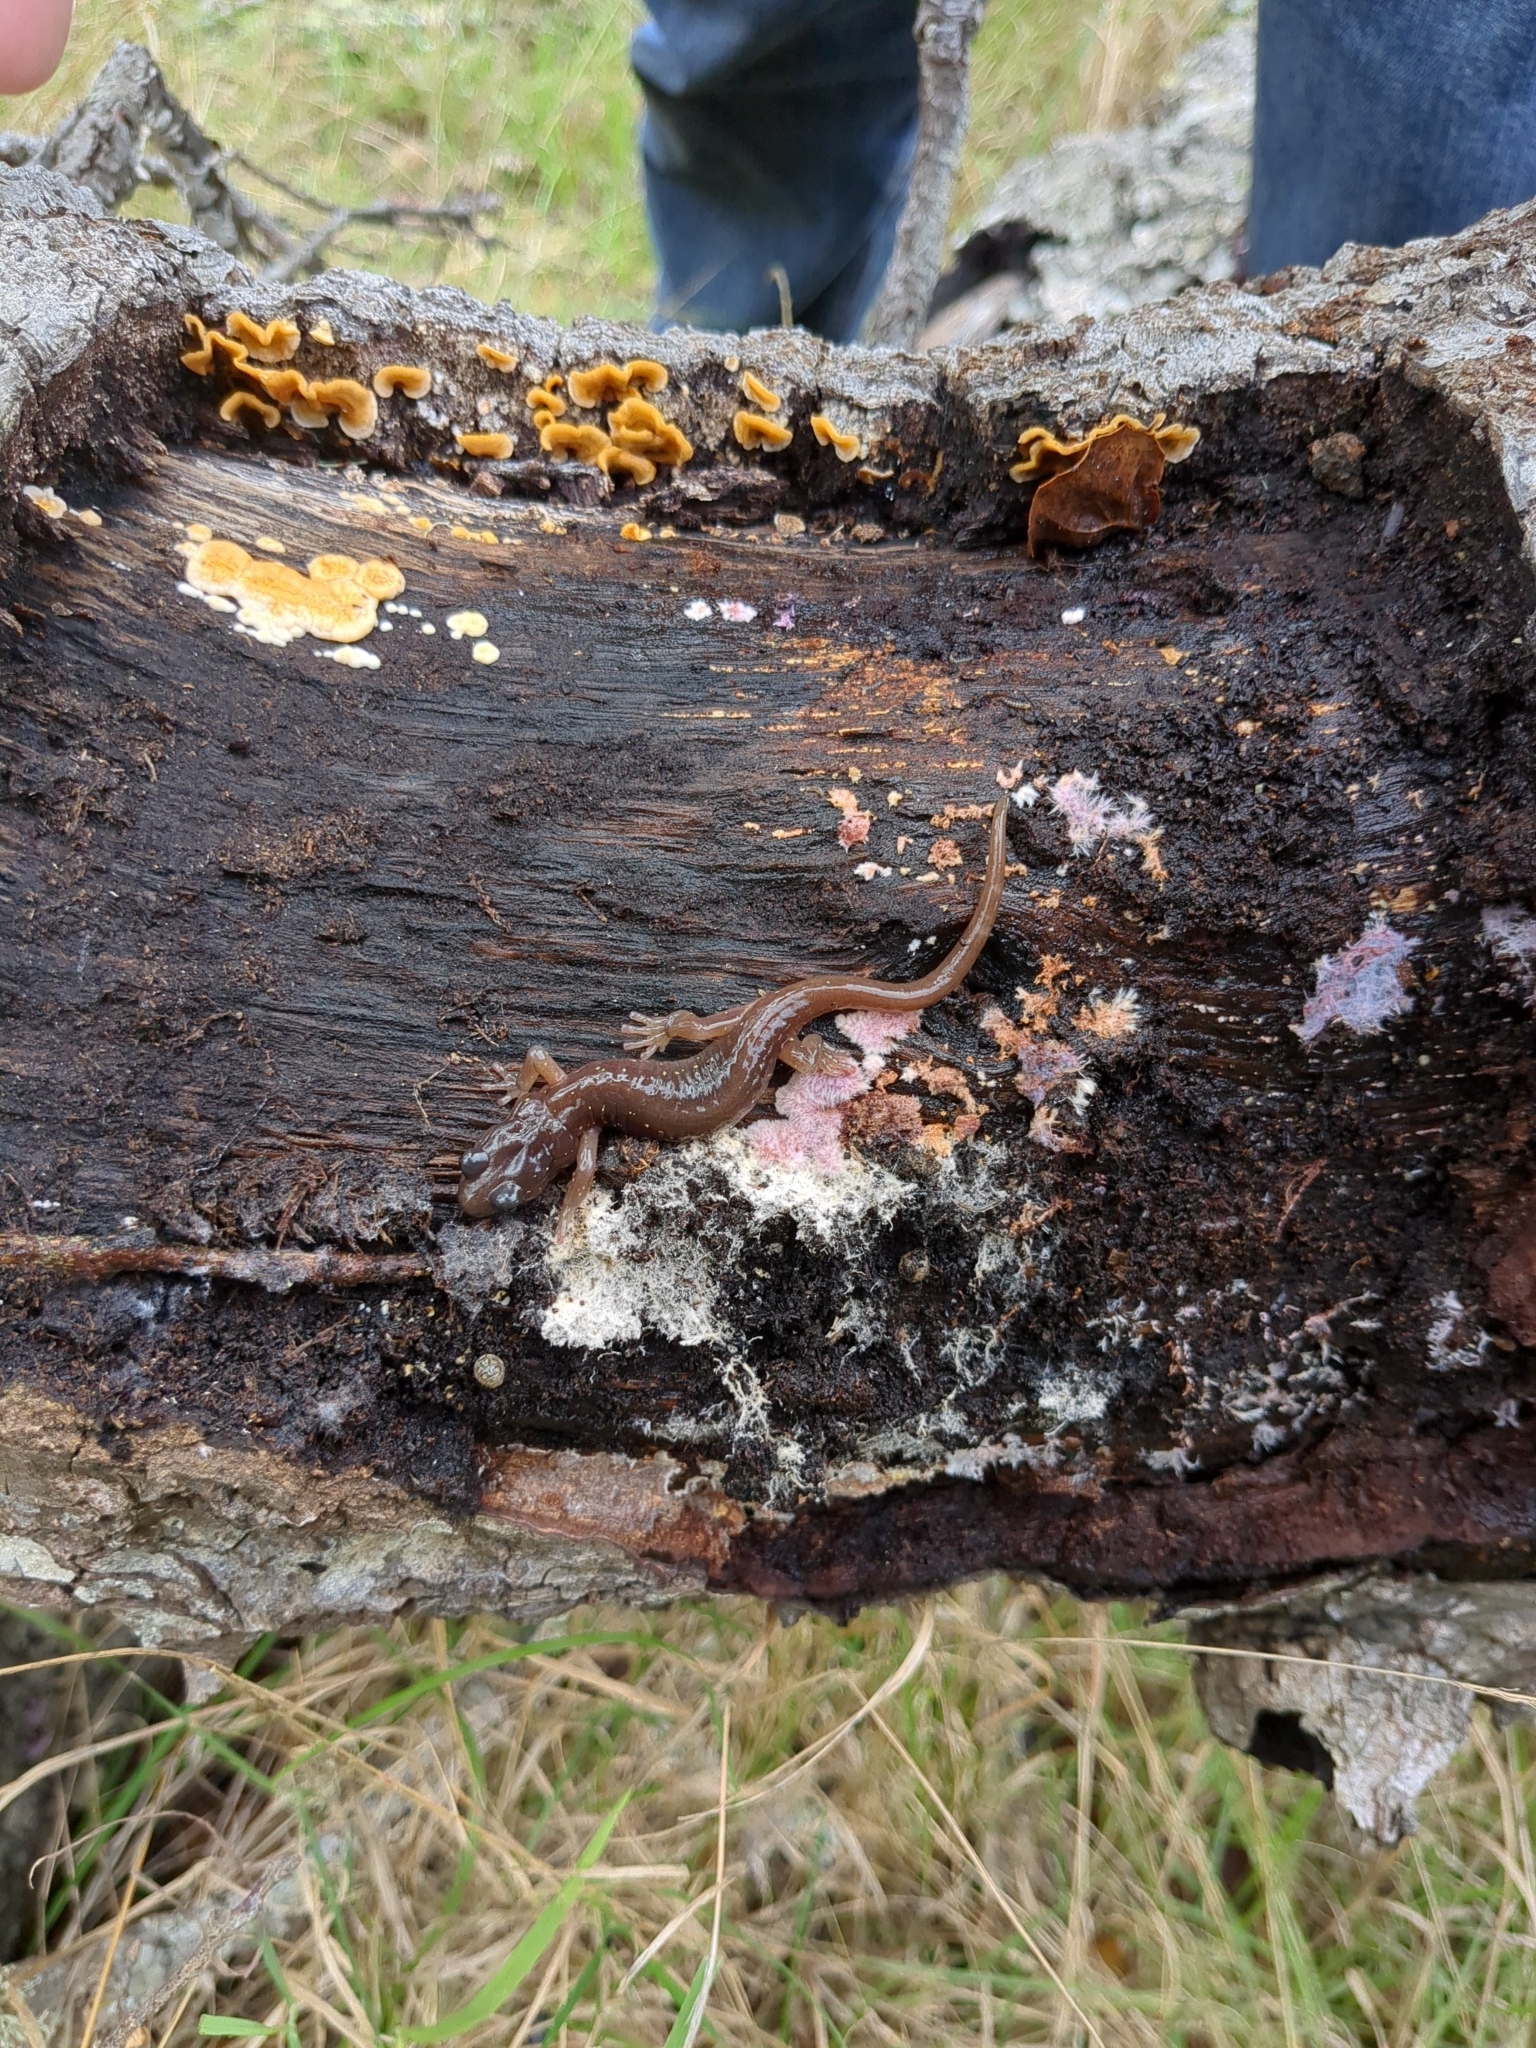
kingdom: Animalia
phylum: Chordata
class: Amphibia
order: Caudata
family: Plethodontidae
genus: Aneides
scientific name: Aneides lugubris
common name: Arboreal salamander
